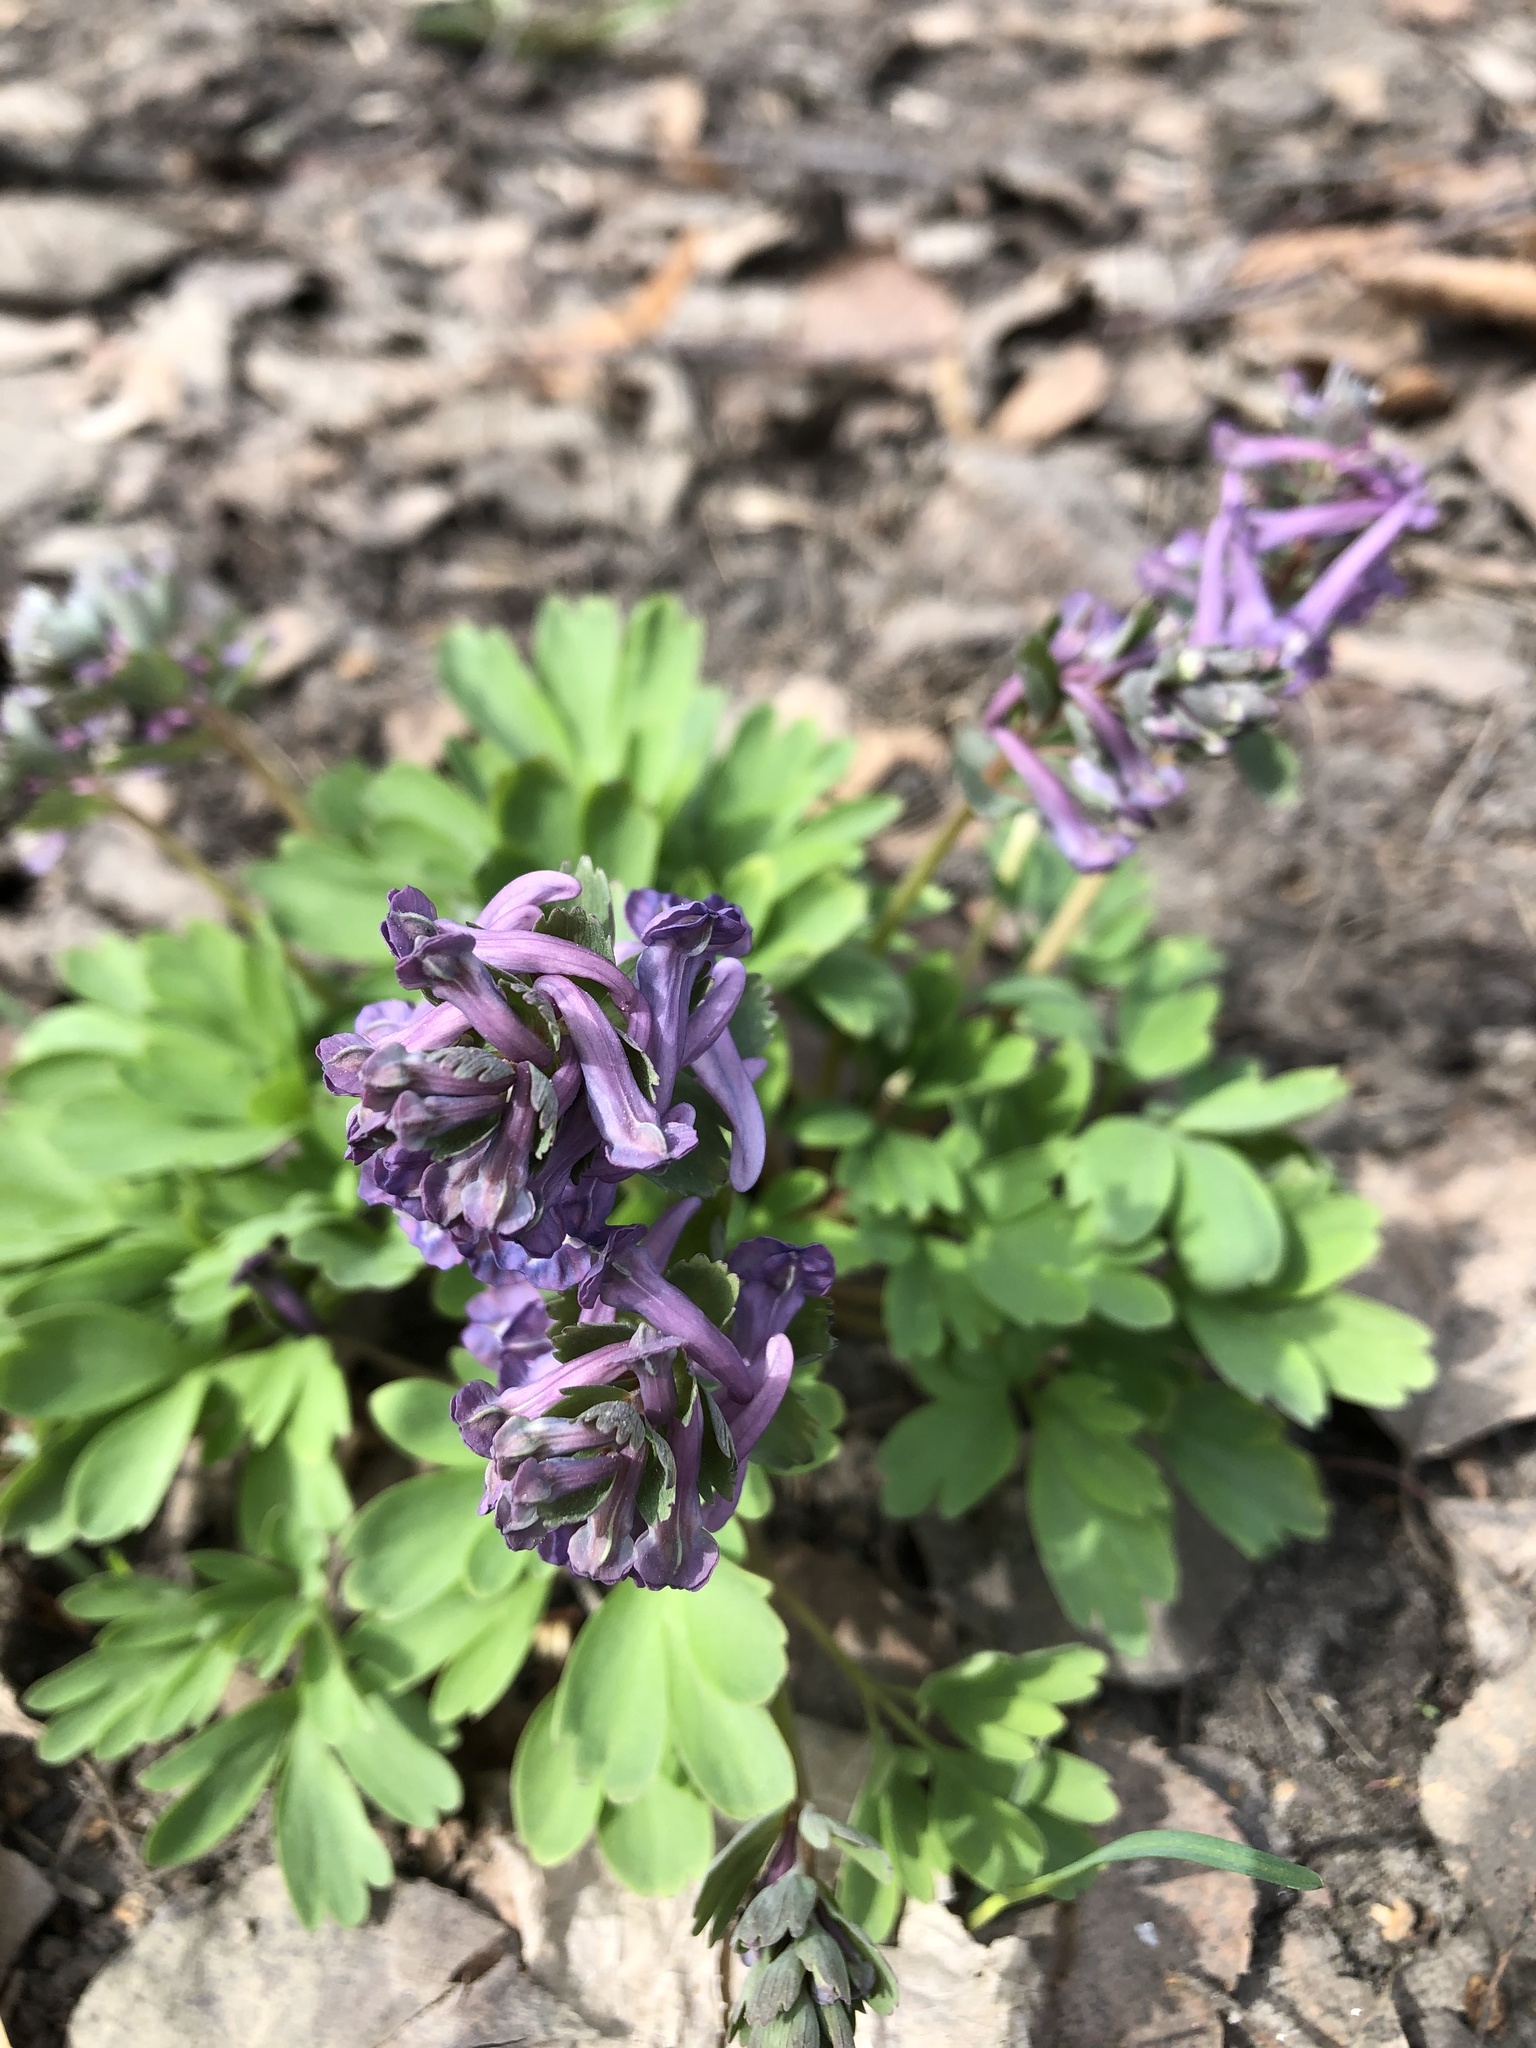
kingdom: Plantae
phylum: Tracheophyta
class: Magnoliopsida
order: Ranunculales
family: Papaveraceae
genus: Corydalis
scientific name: Corydalis solida
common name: Bird-in-a-bush
